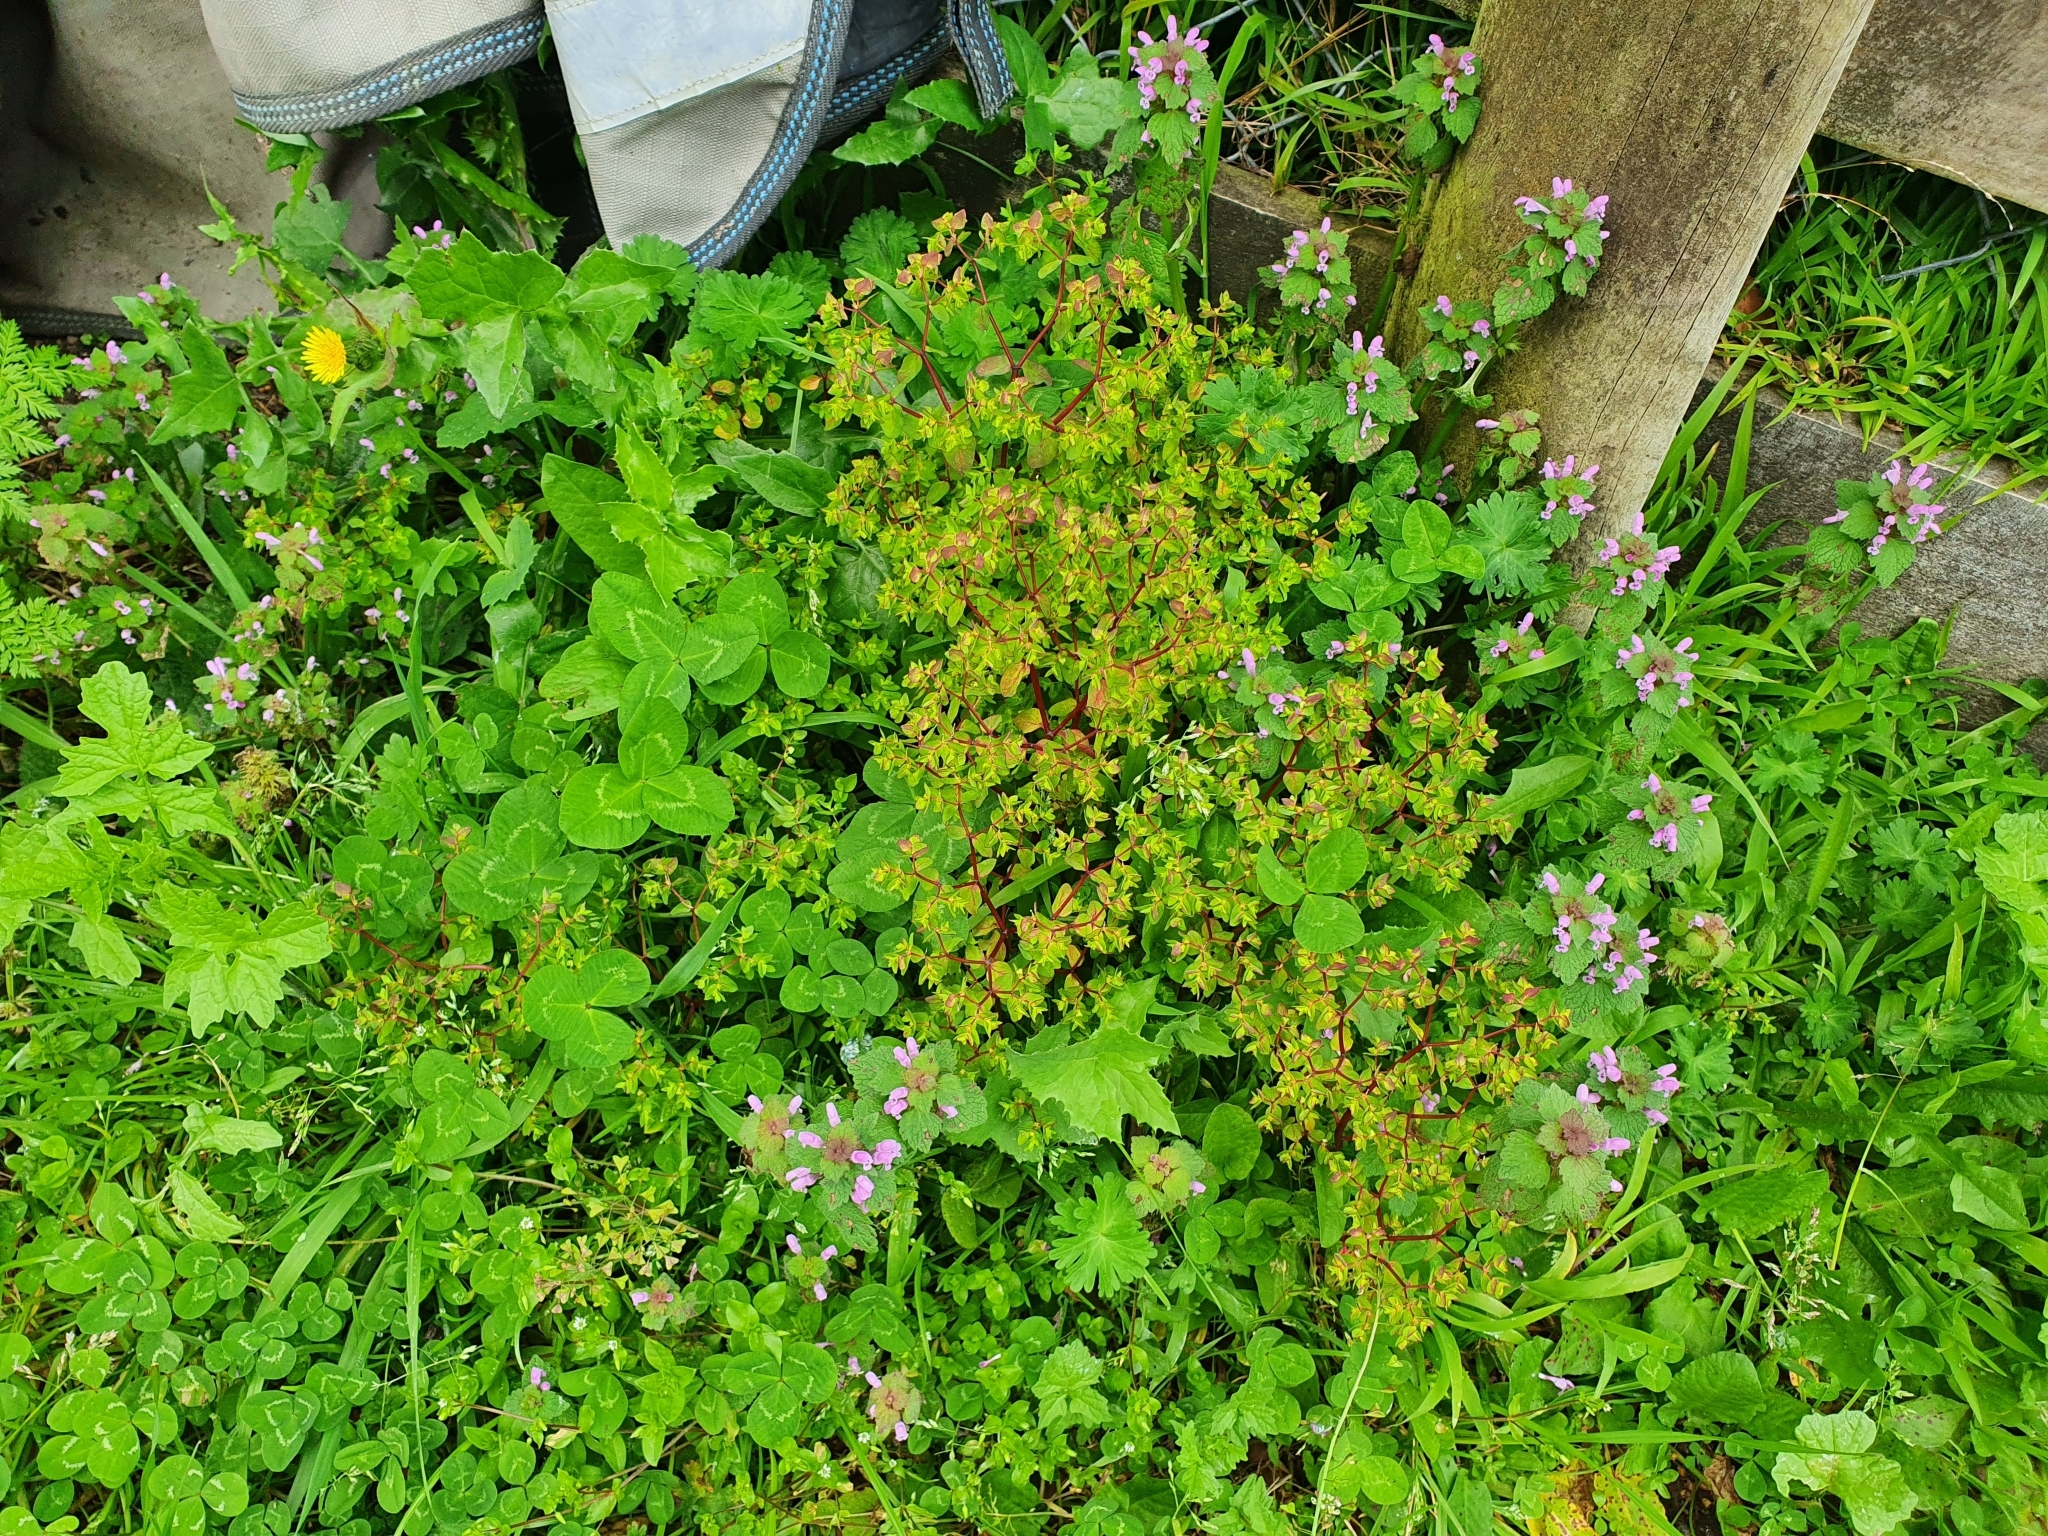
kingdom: Plantae
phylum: Tracheophyta
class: Magnoliopsida
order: Malpighiales
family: Euphorbiaceae
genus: Euphorbia
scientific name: Euphorbia peplus
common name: Petty spurge
